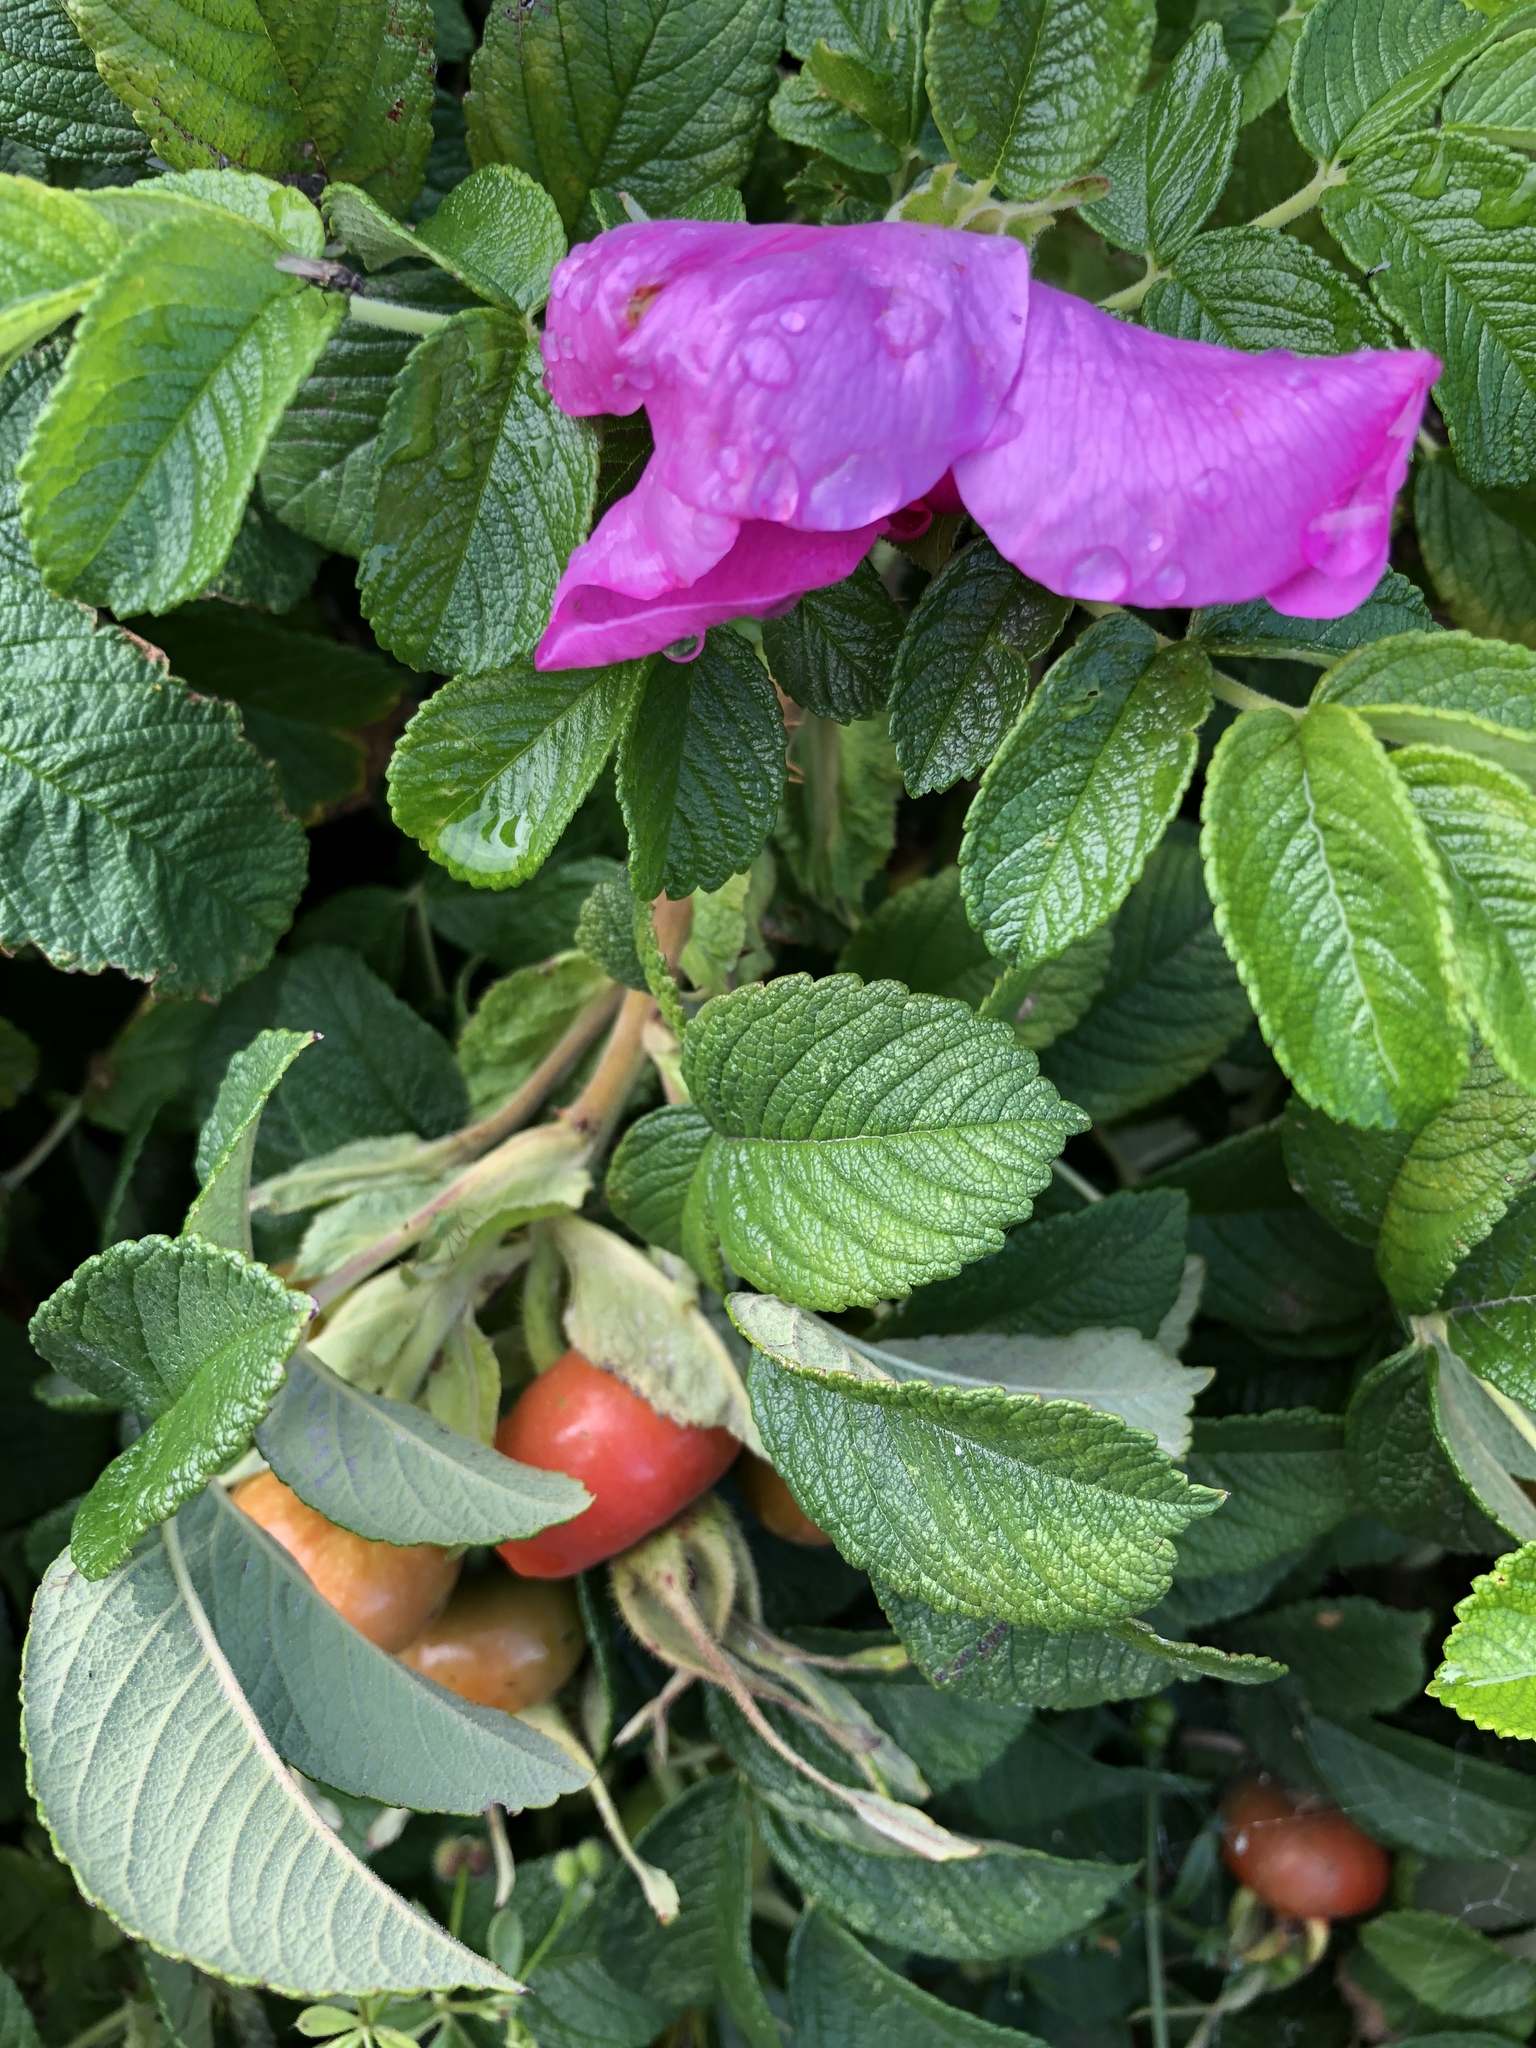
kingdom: Plantae
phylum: Tracheophyta
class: Magnoliopsida
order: Rosales
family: Rosaceae
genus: Rosa
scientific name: Rosa rugosa
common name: Japanese rose
